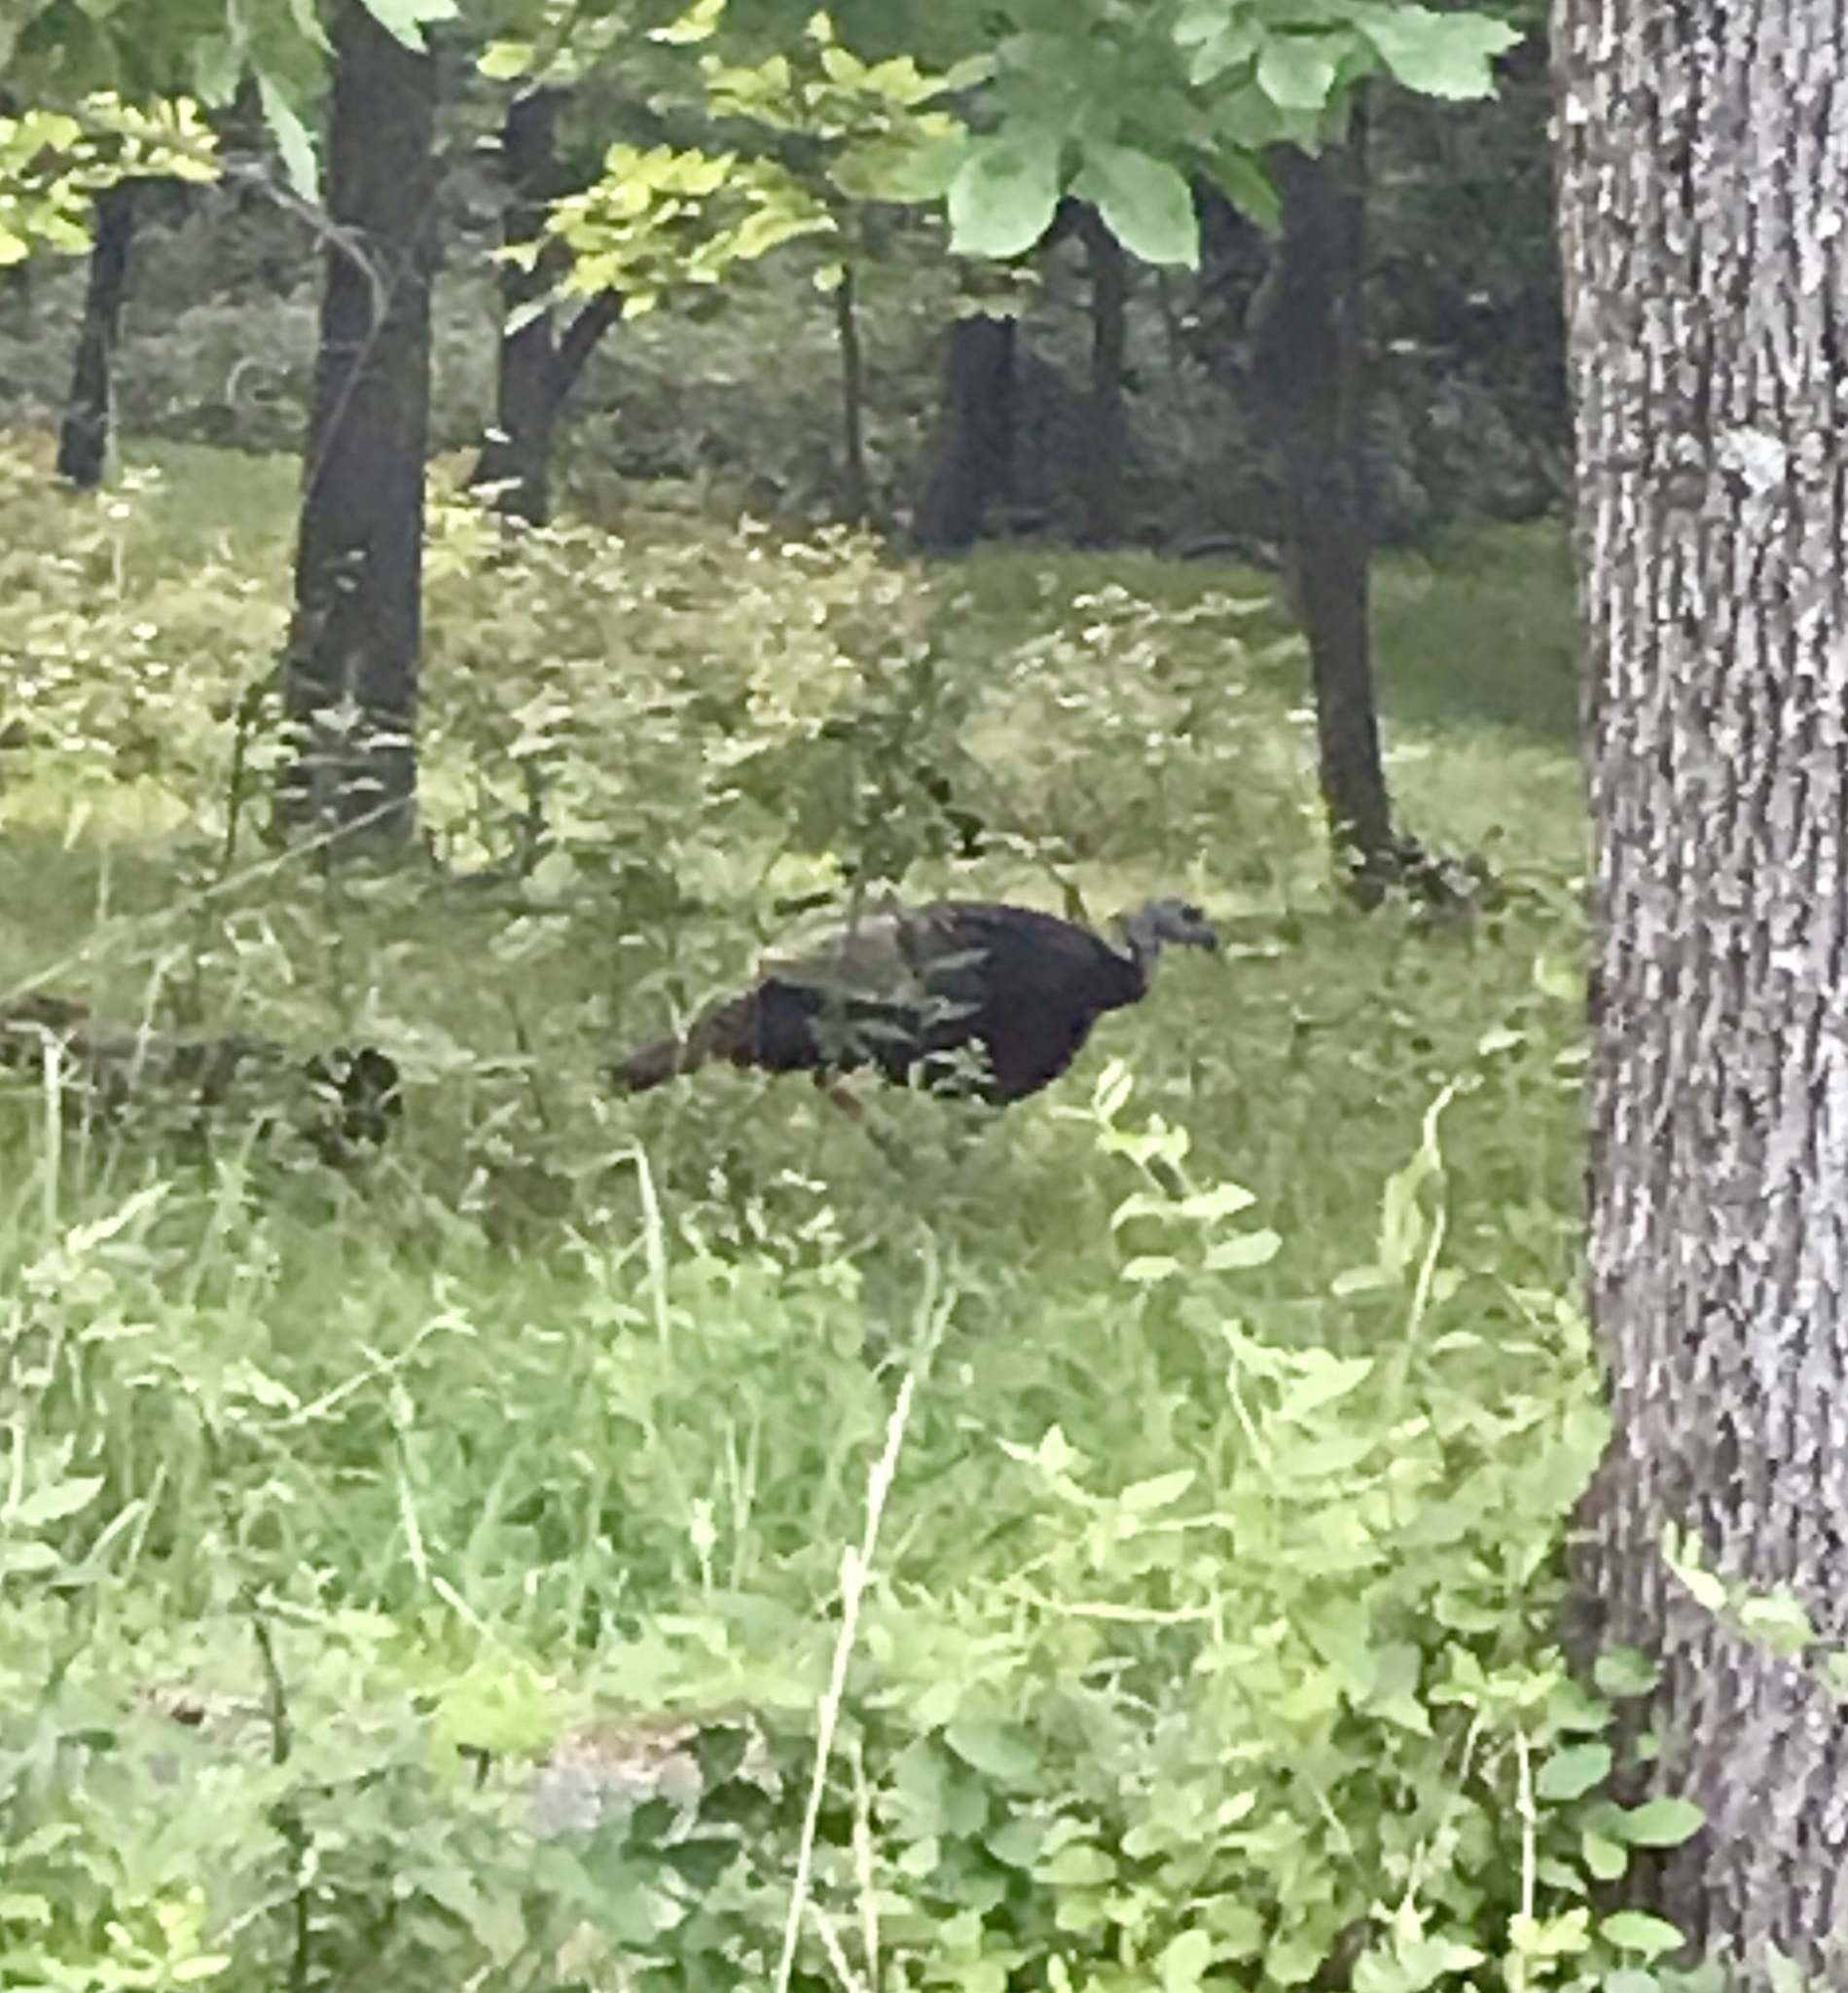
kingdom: Animalia
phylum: Chordata
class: Aves
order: Galliformes
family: Phasianidae
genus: Meleagris
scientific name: Meleagris gallopavo
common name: Wild turkey
